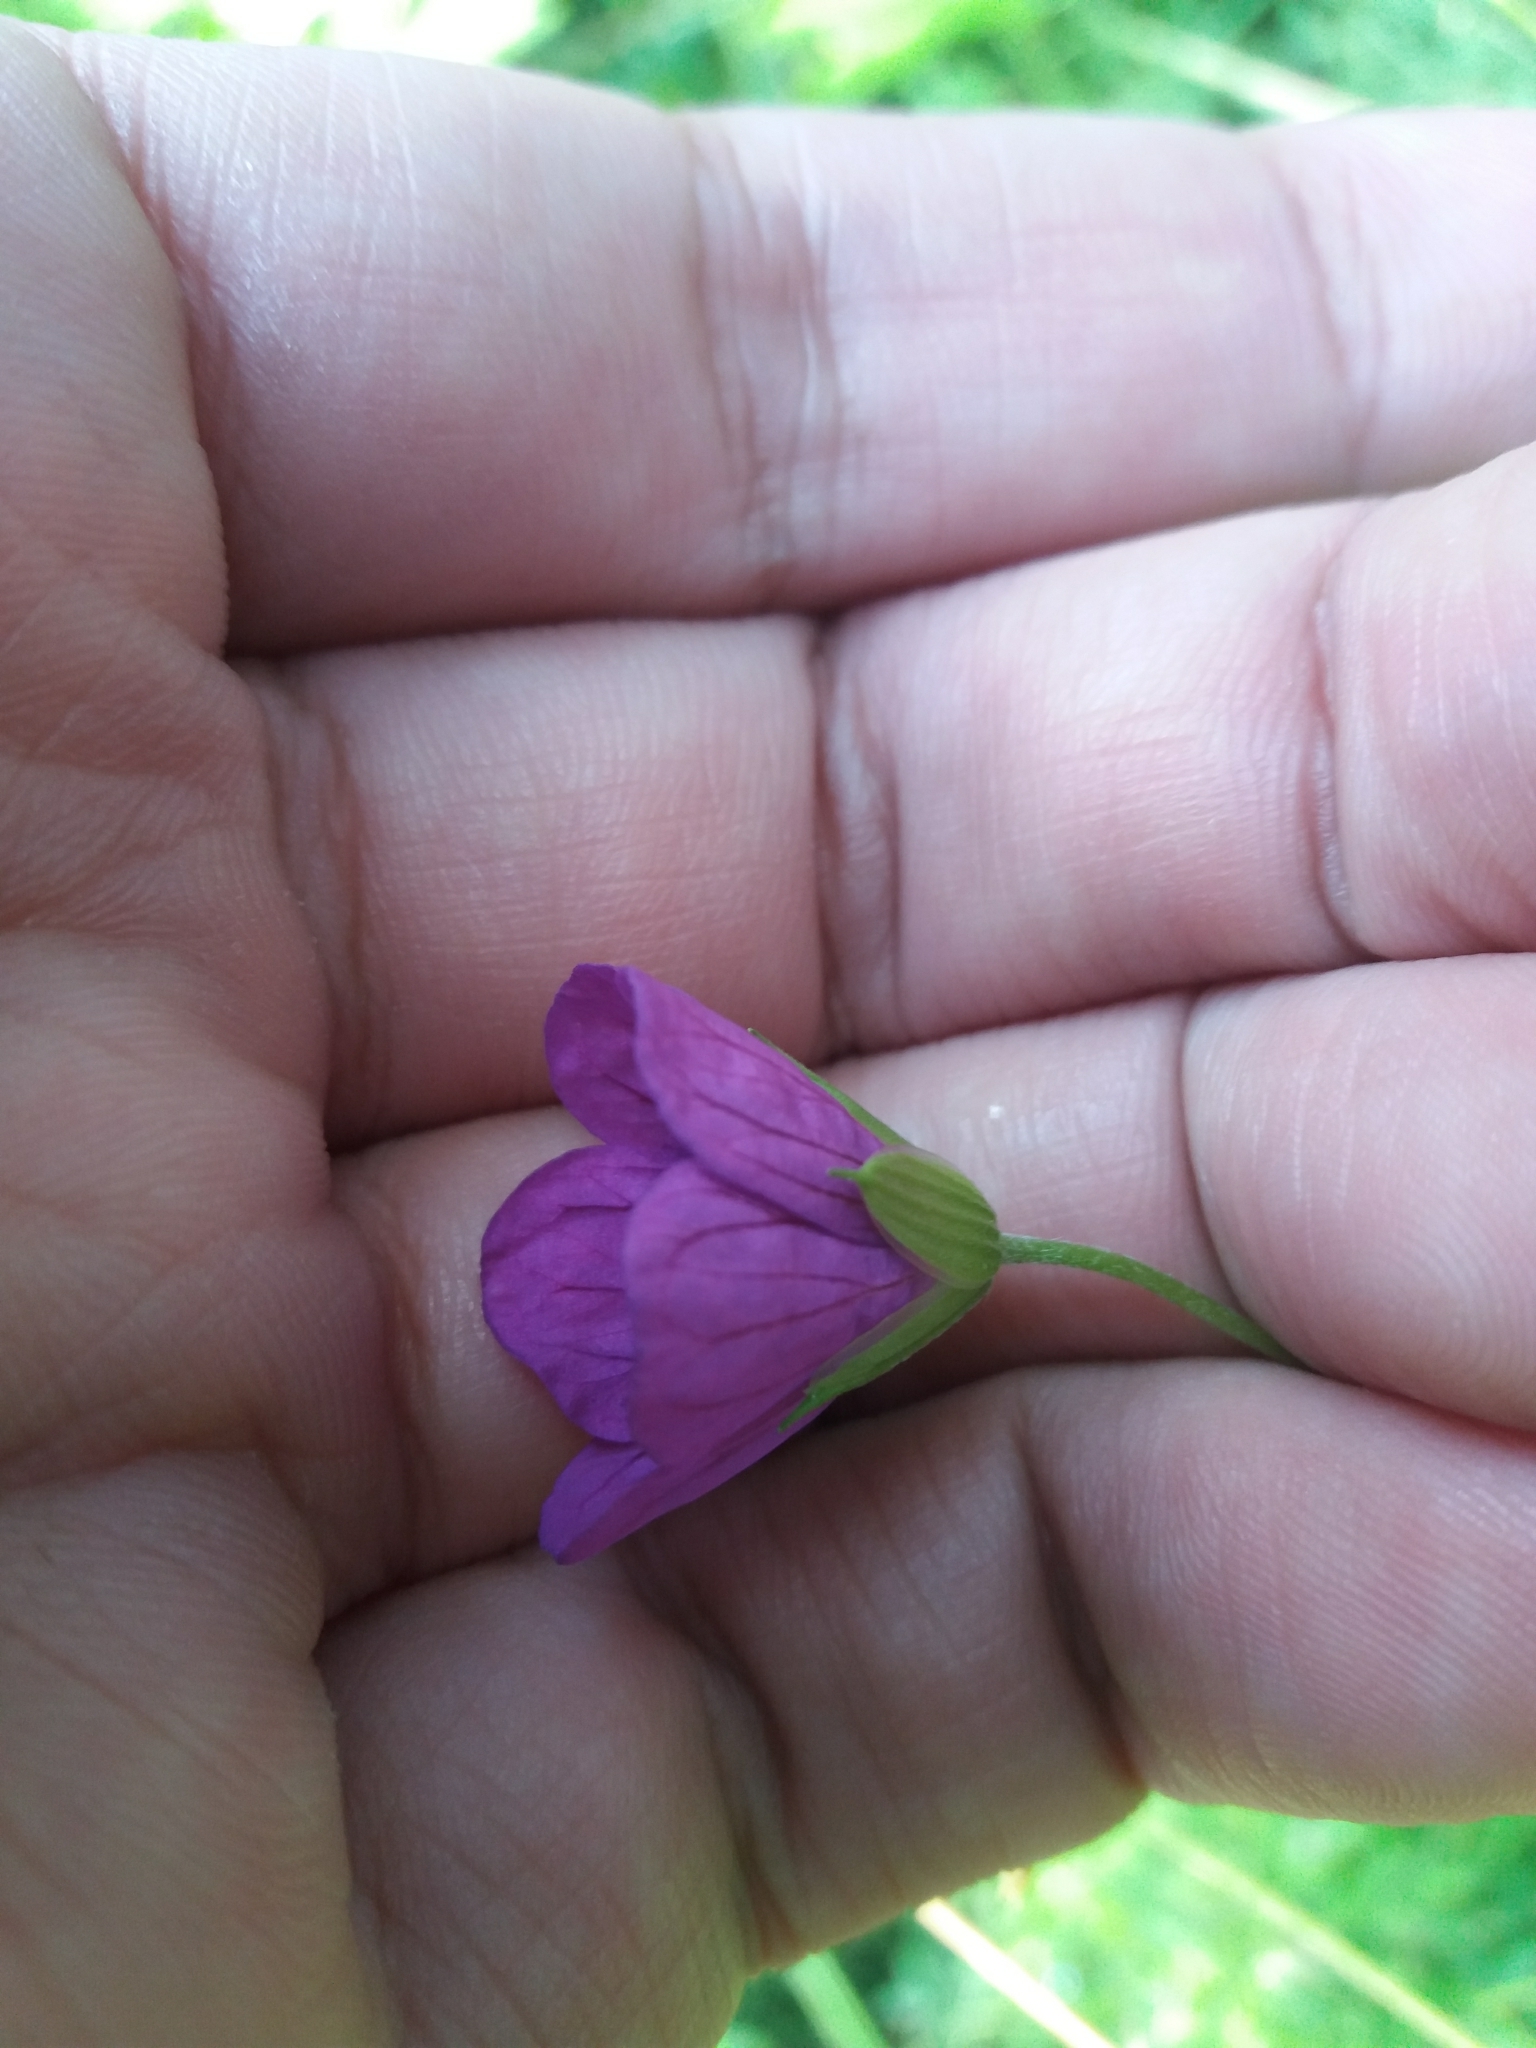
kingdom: Plantae
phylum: Tracheophyta
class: Magnoliopsida
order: Geraniales
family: Geraniaceae
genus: Geranium
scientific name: Geranium palustre
